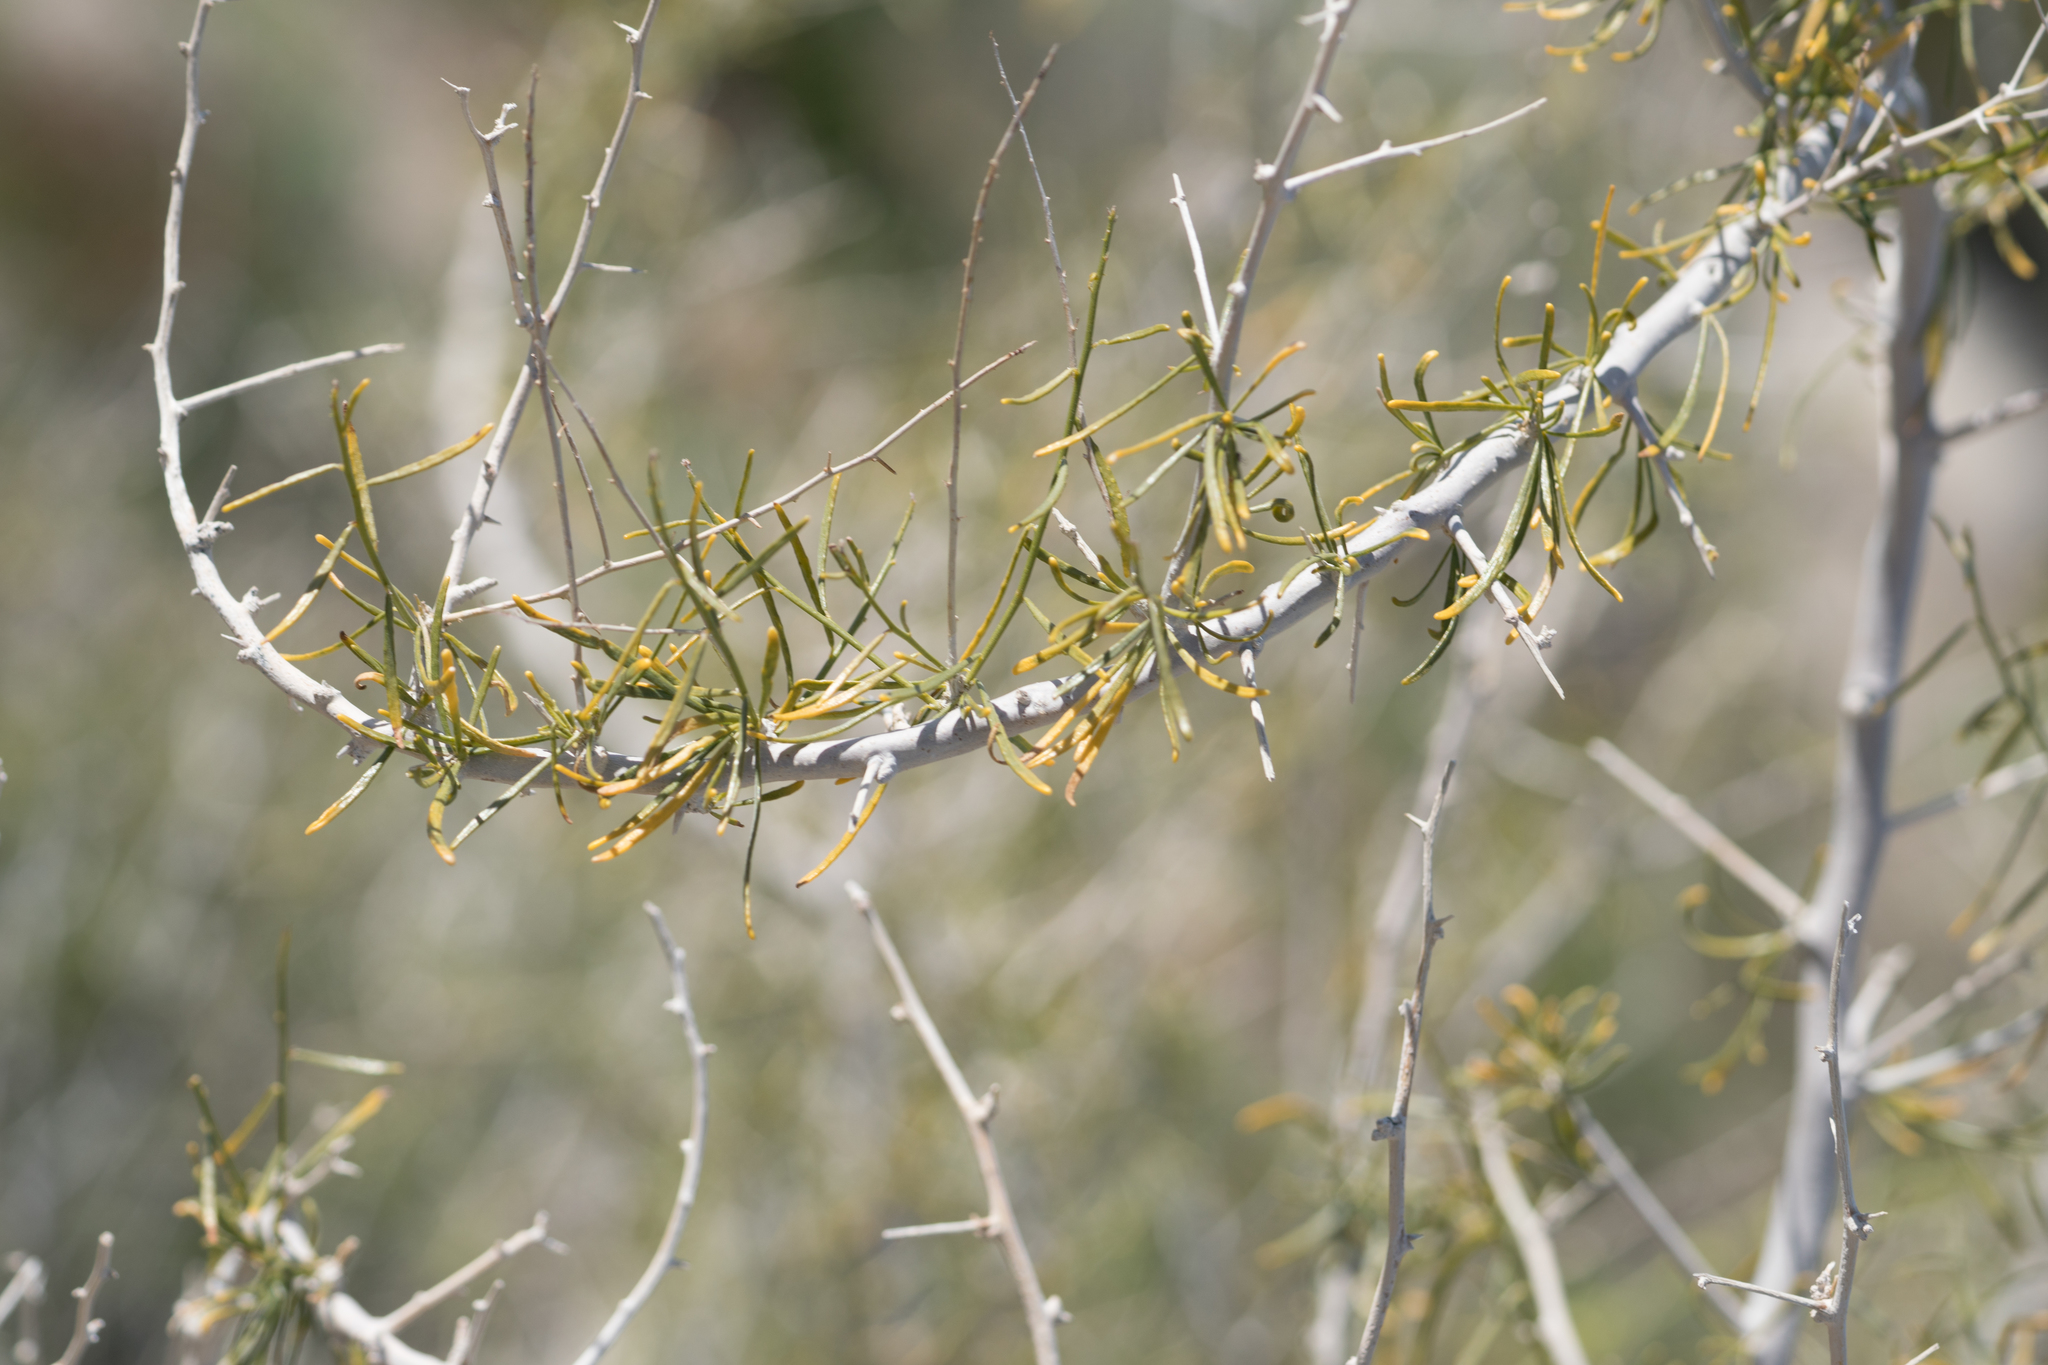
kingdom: Plantae
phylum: Tracheophyta
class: Magnoliopsida
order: Fabales
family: Fabaceae
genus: Psorothamnus
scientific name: Psorothamnus schottii
